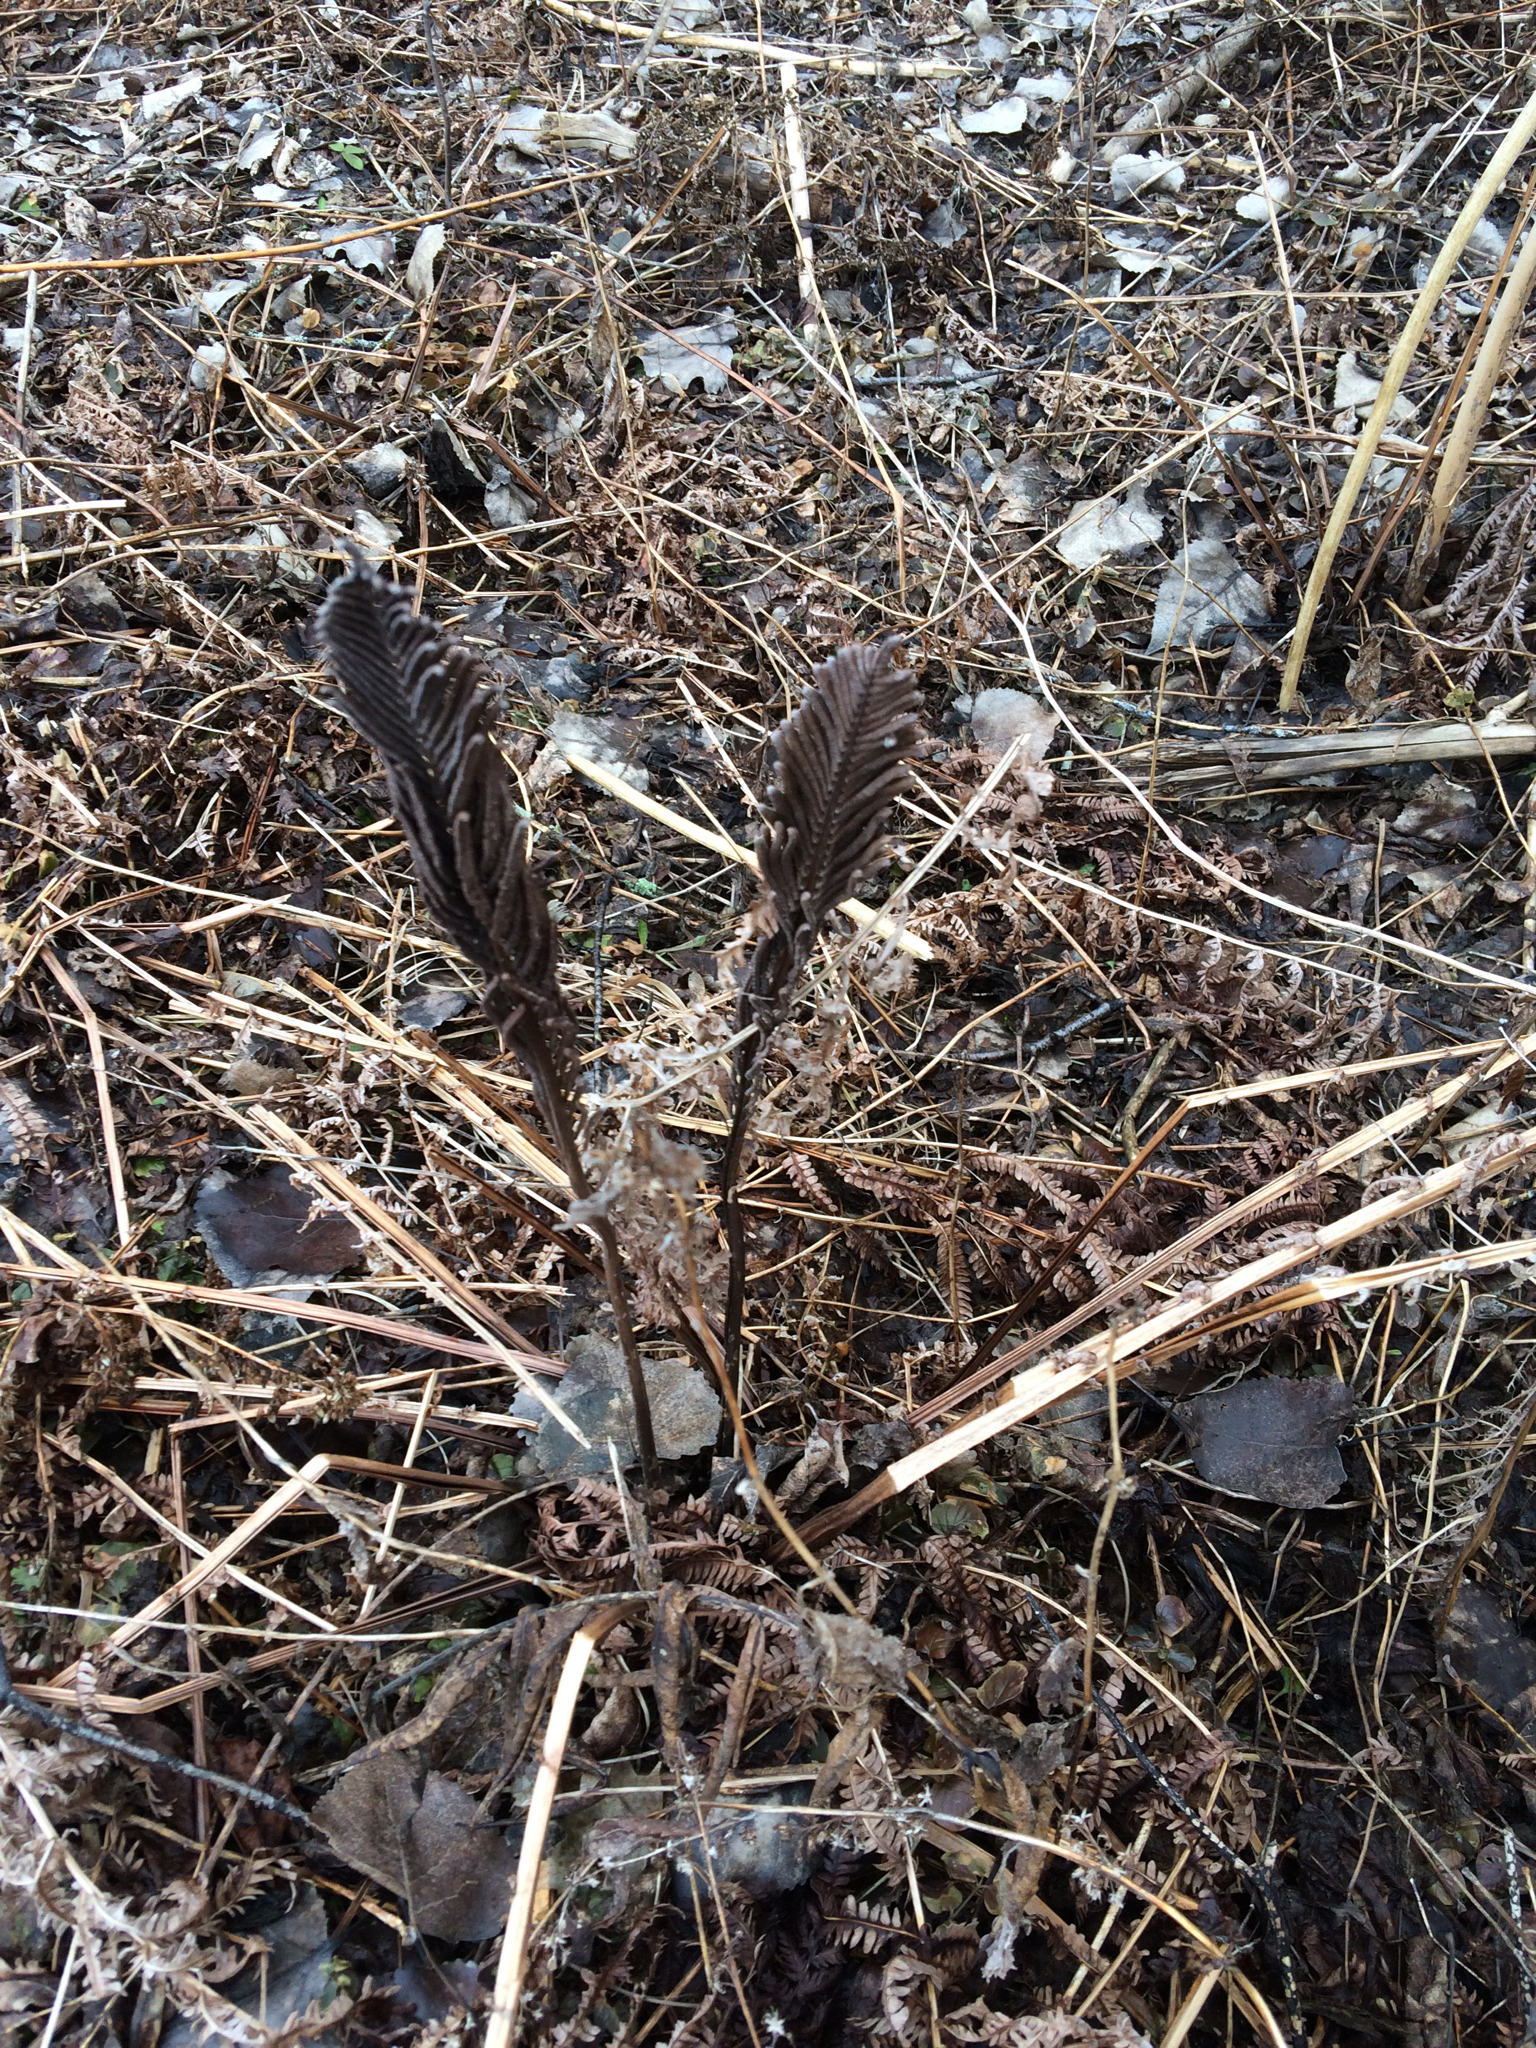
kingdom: Plantae
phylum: Tracheophyta
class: Polypodiopsida
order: Polypodiales
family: Onocleaceae
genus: Matteuccia
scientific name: Matteuccia struthiopteris
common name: Ostrich fern
